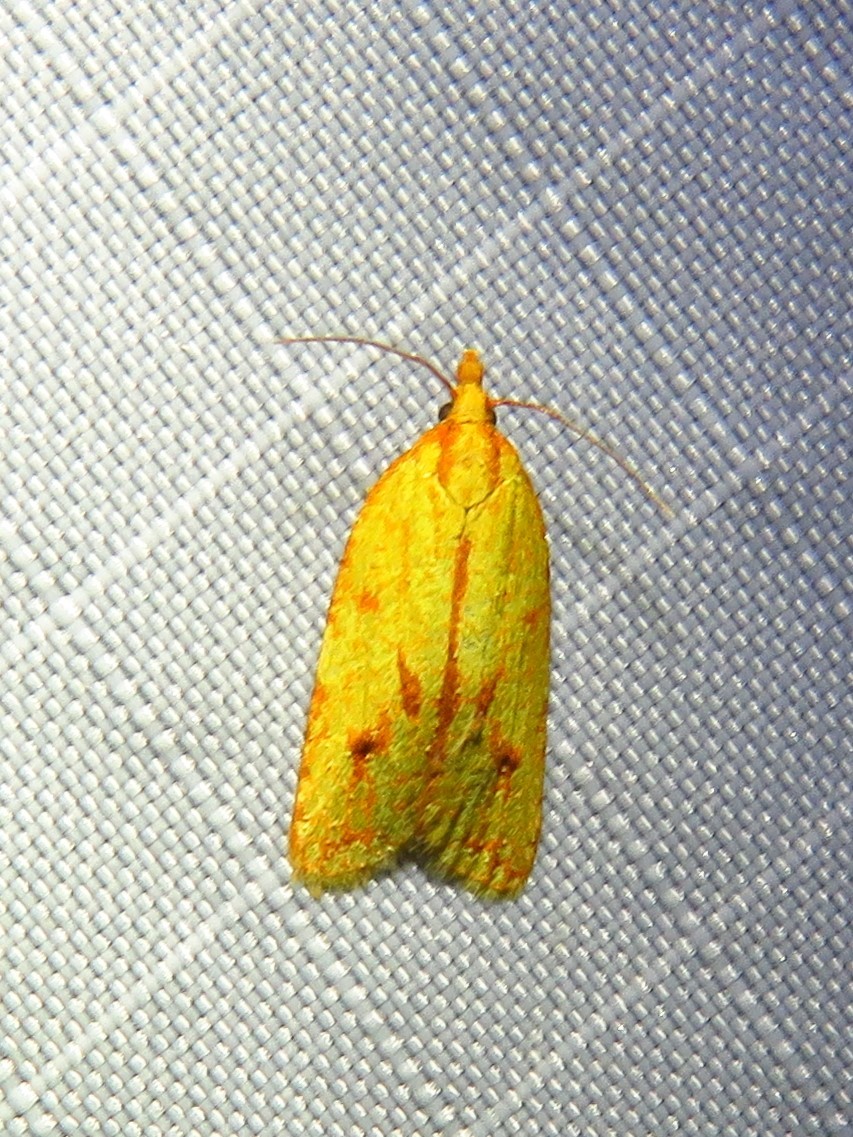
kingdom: Animalia
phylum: Arthropoda
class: Insecta
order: Lepidoptera
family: Tortricidae
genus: Sparganothis
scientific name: Sparganothis sulfureana
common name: Sparganothis fruitworm moth
